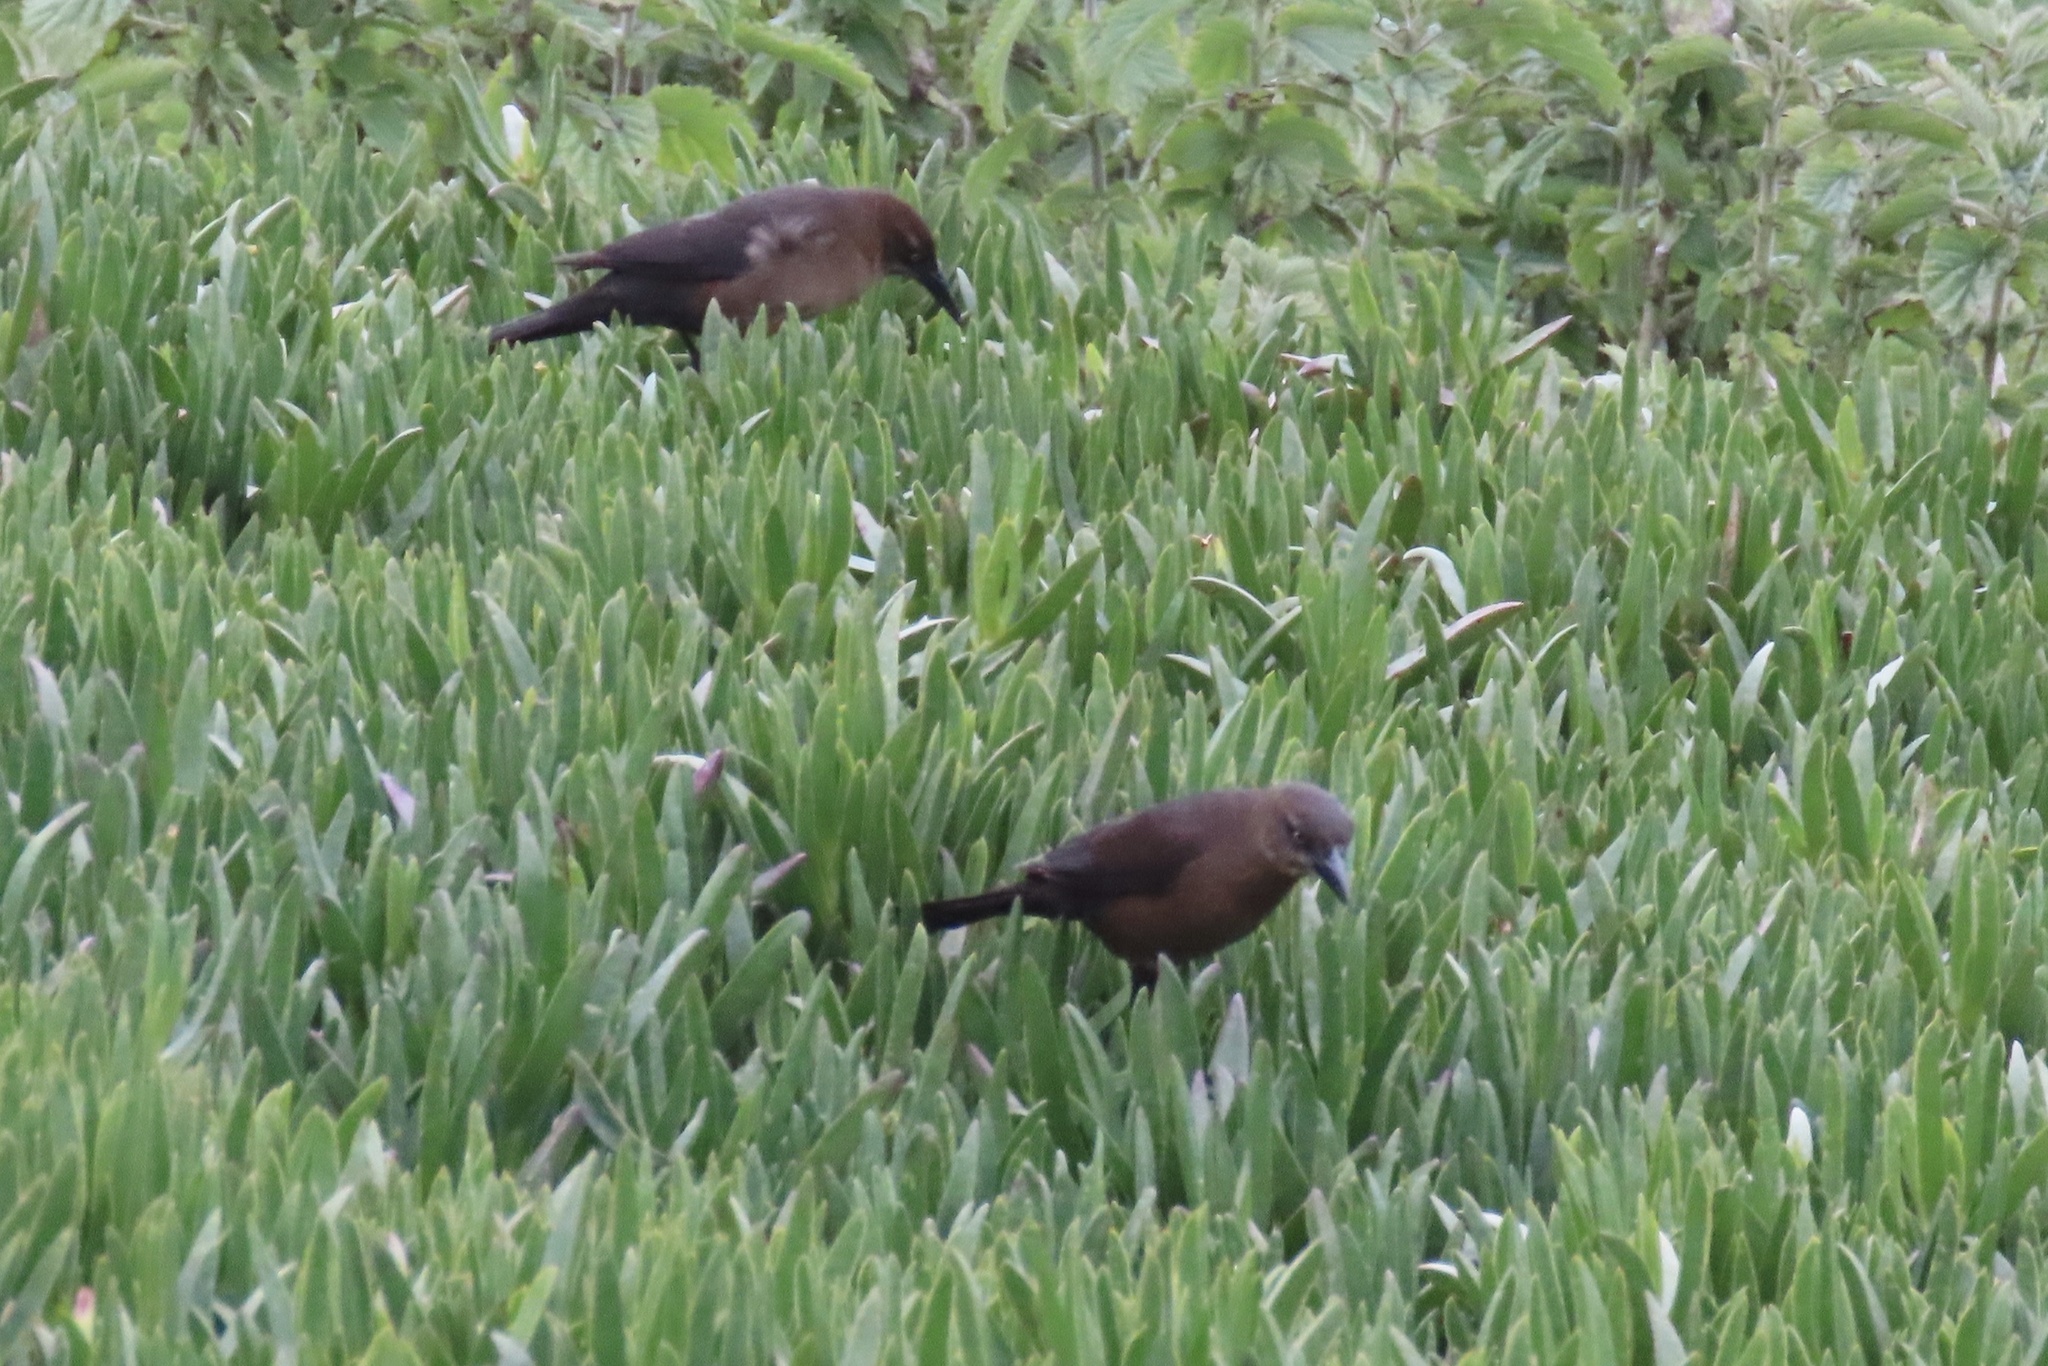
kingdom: Animalia
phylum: Chordata
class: Aves
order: Passeriformes
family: Icteridae
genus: Quiscalus
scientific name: Quiscalus mexicanus
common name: Great-tailed grackle
